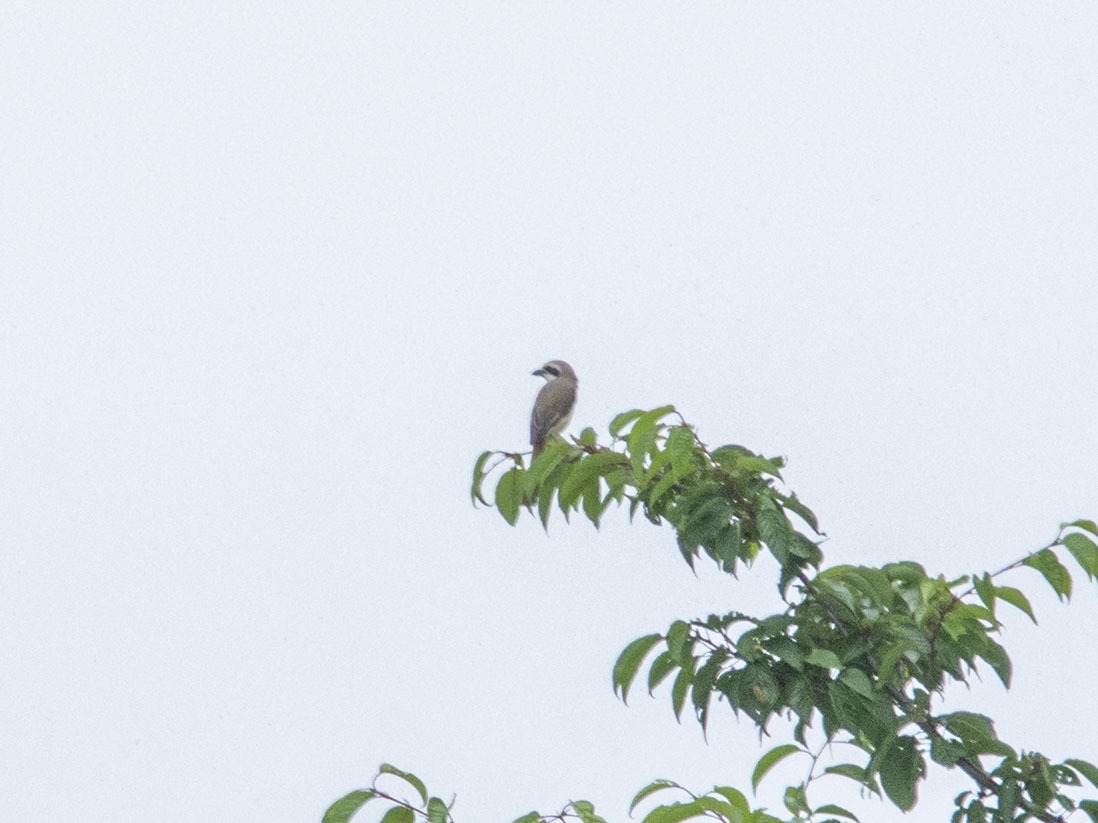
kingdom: Animalia
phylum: Chordata
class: Aves
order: Passeriformes
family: Laniidae
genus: Lanius
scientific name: Lanius cristatus
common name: Brown shrike
